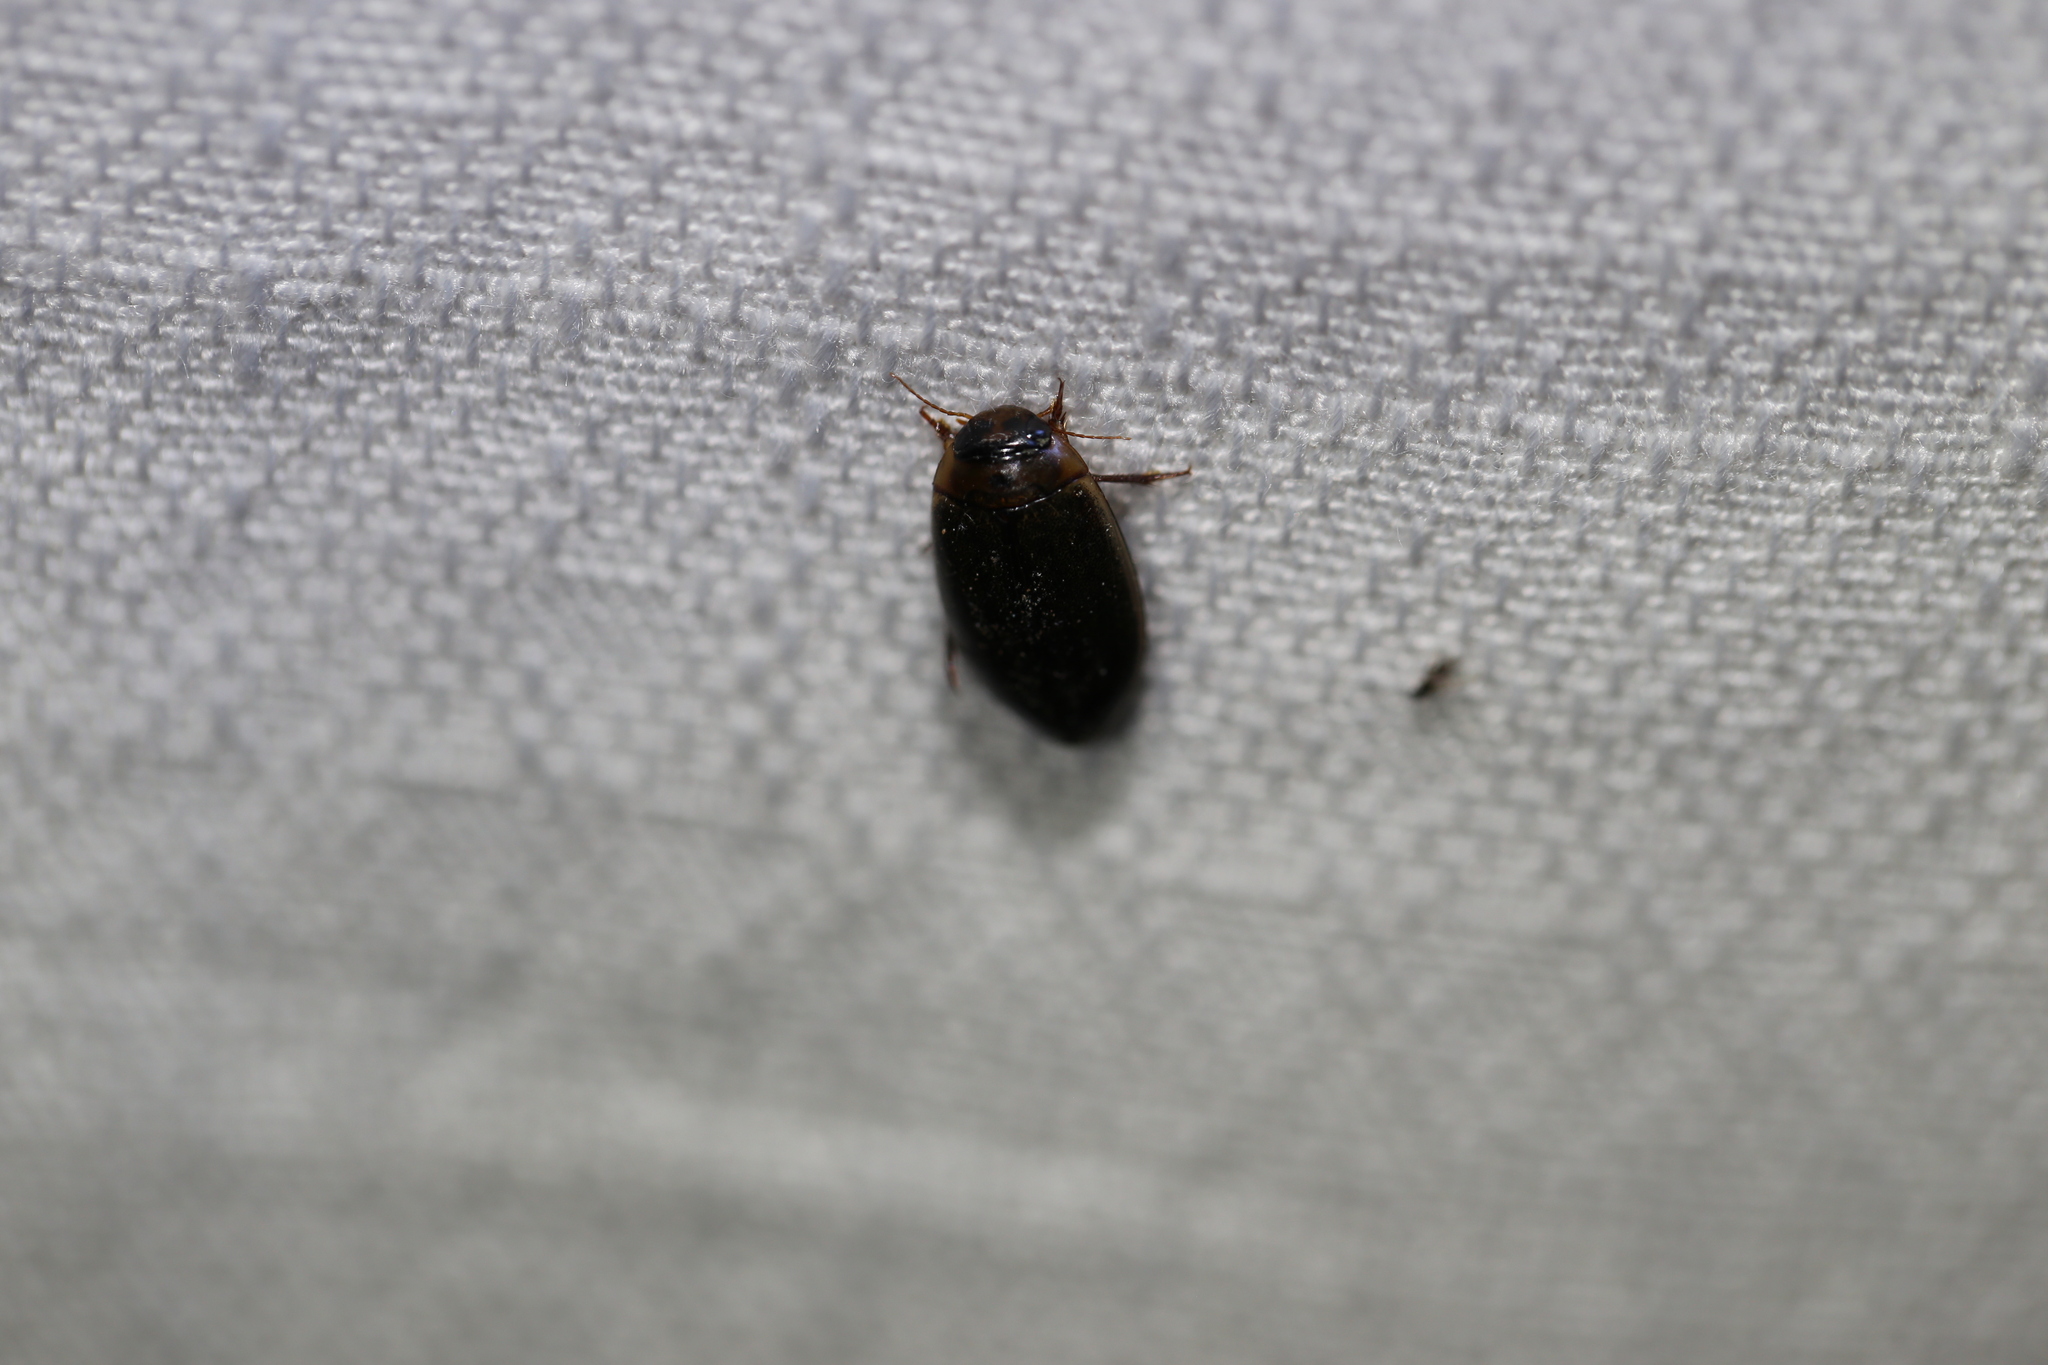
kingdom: Animalia
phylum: Arthropoda
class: Insecta
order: Coleoptera
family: Dytiscidae
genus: Rhantus
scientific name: Rhantus suturalis
